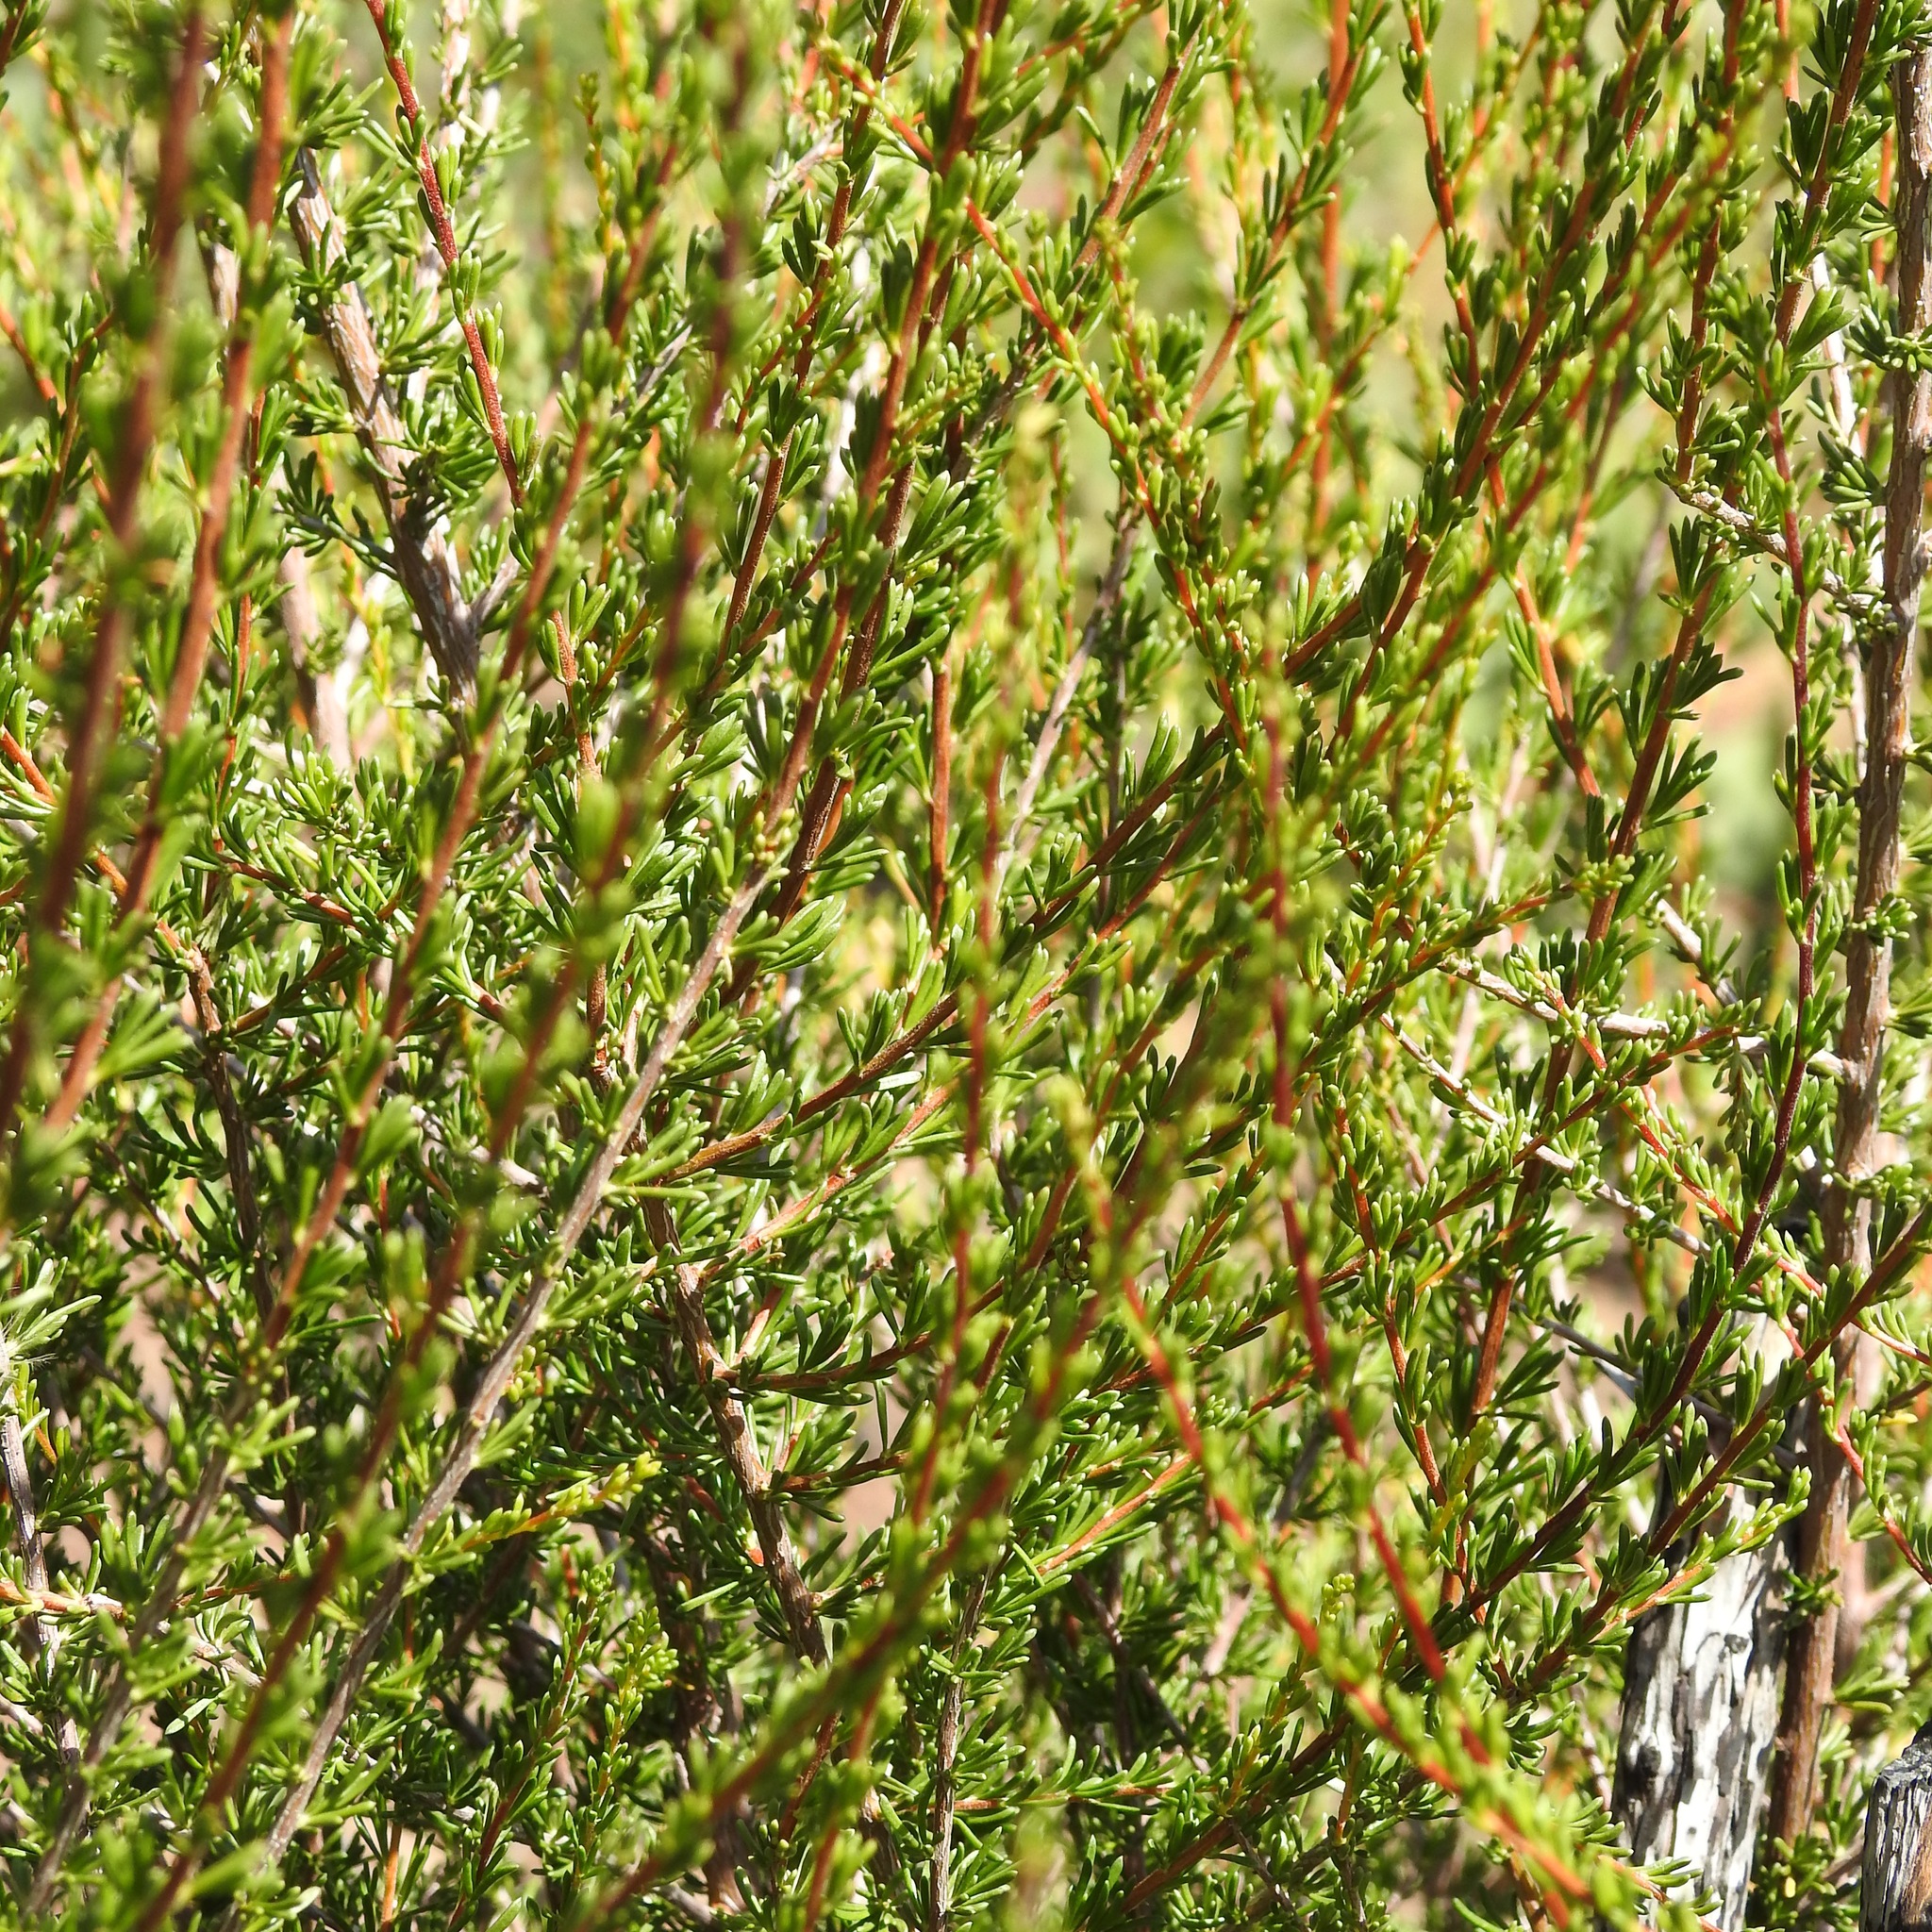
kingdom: Plantae
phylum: Tracheophyta
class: Magnoliopsida
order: Rosales
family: Rosaceae
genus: Adenostoma
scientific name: Adenostoma fasciculatum
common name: Chamise
